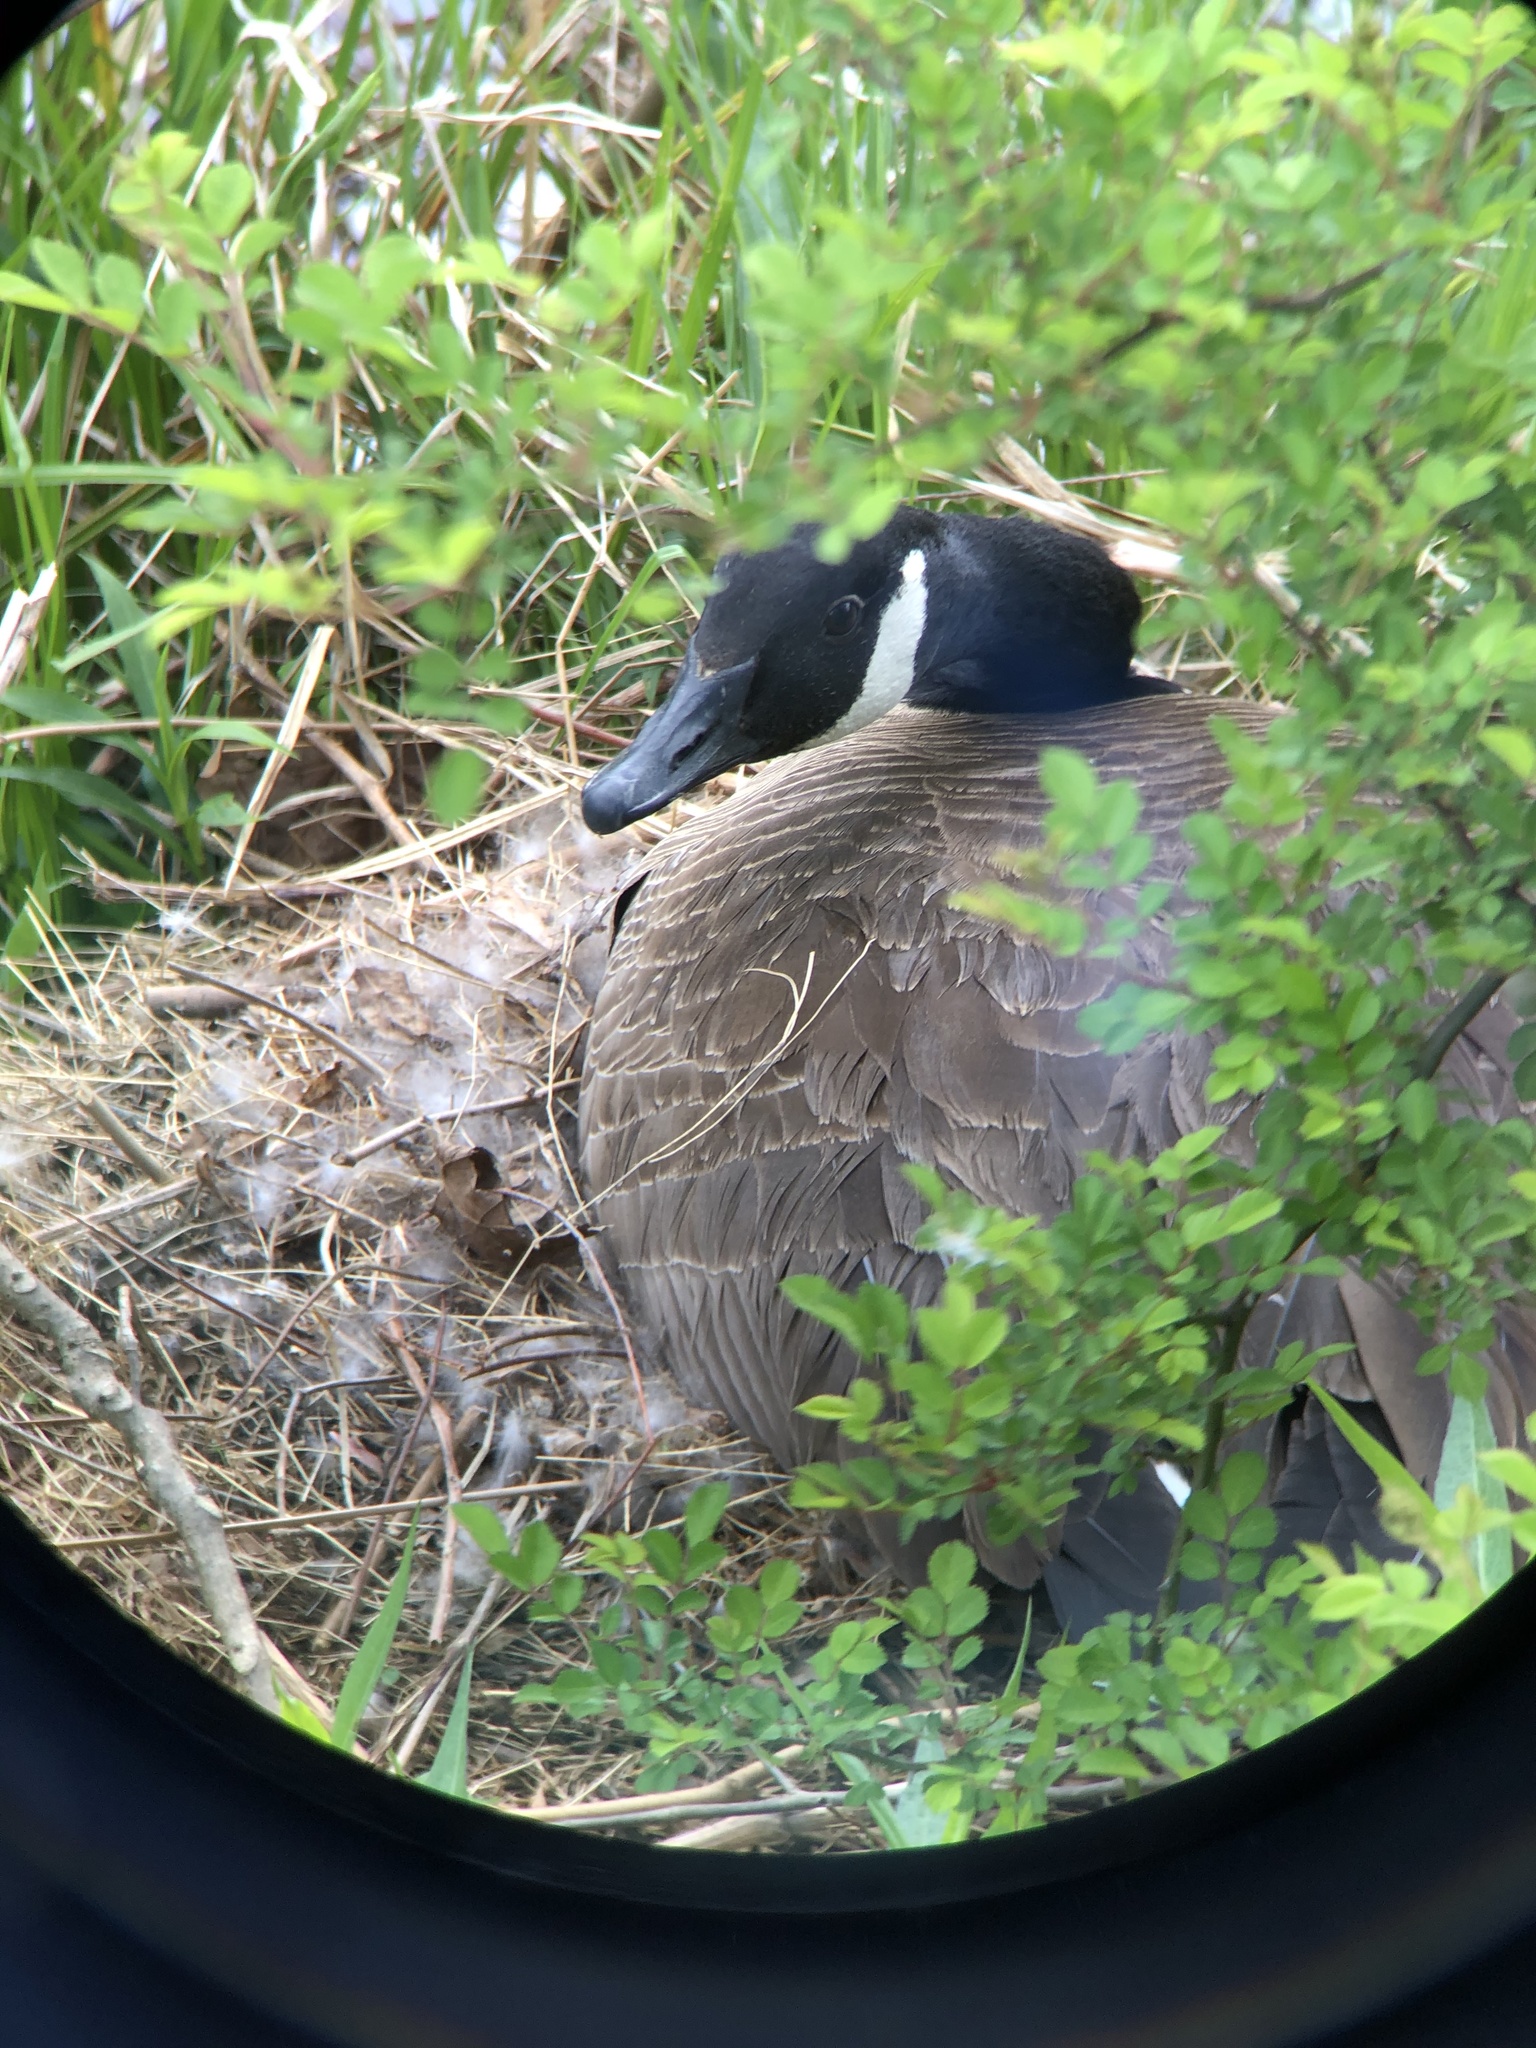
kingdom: Animalia
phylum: Chordata
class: Aves
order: Anseriformes
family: Anatidae
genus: Branta
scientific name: Branta canadensis
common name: Canada goose
